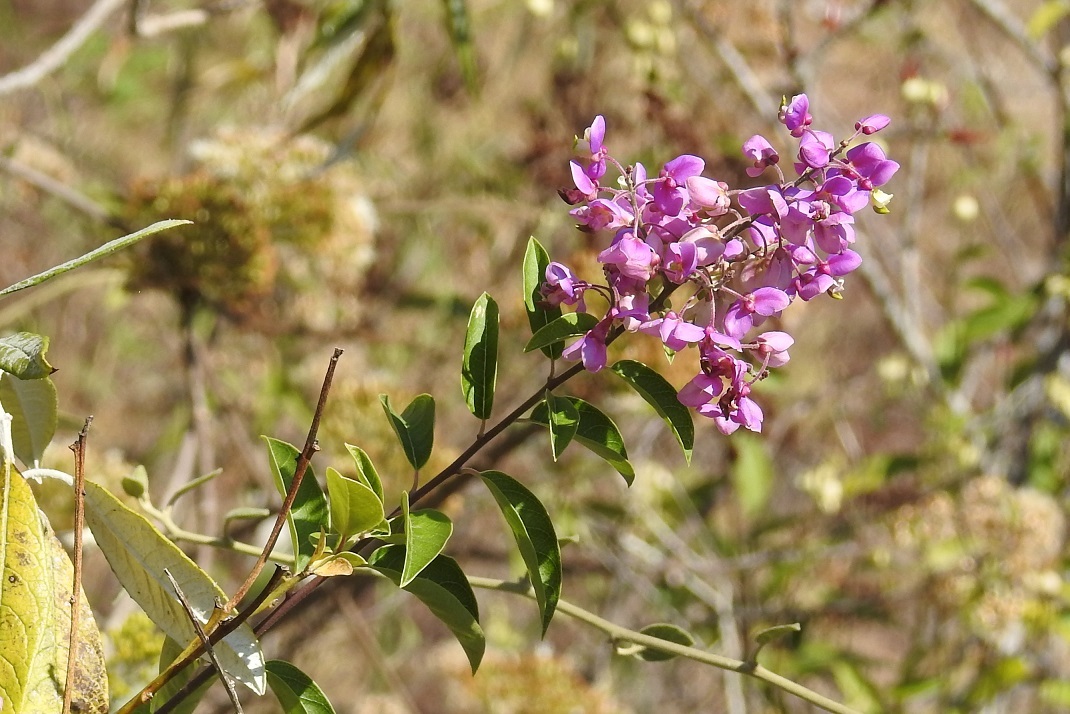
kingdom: Plantae
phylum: Tracheophyta
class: Magnoliopsida
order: Fabales
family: Polygalaceae
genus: Asemeia
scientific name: Asemeia floribunda
